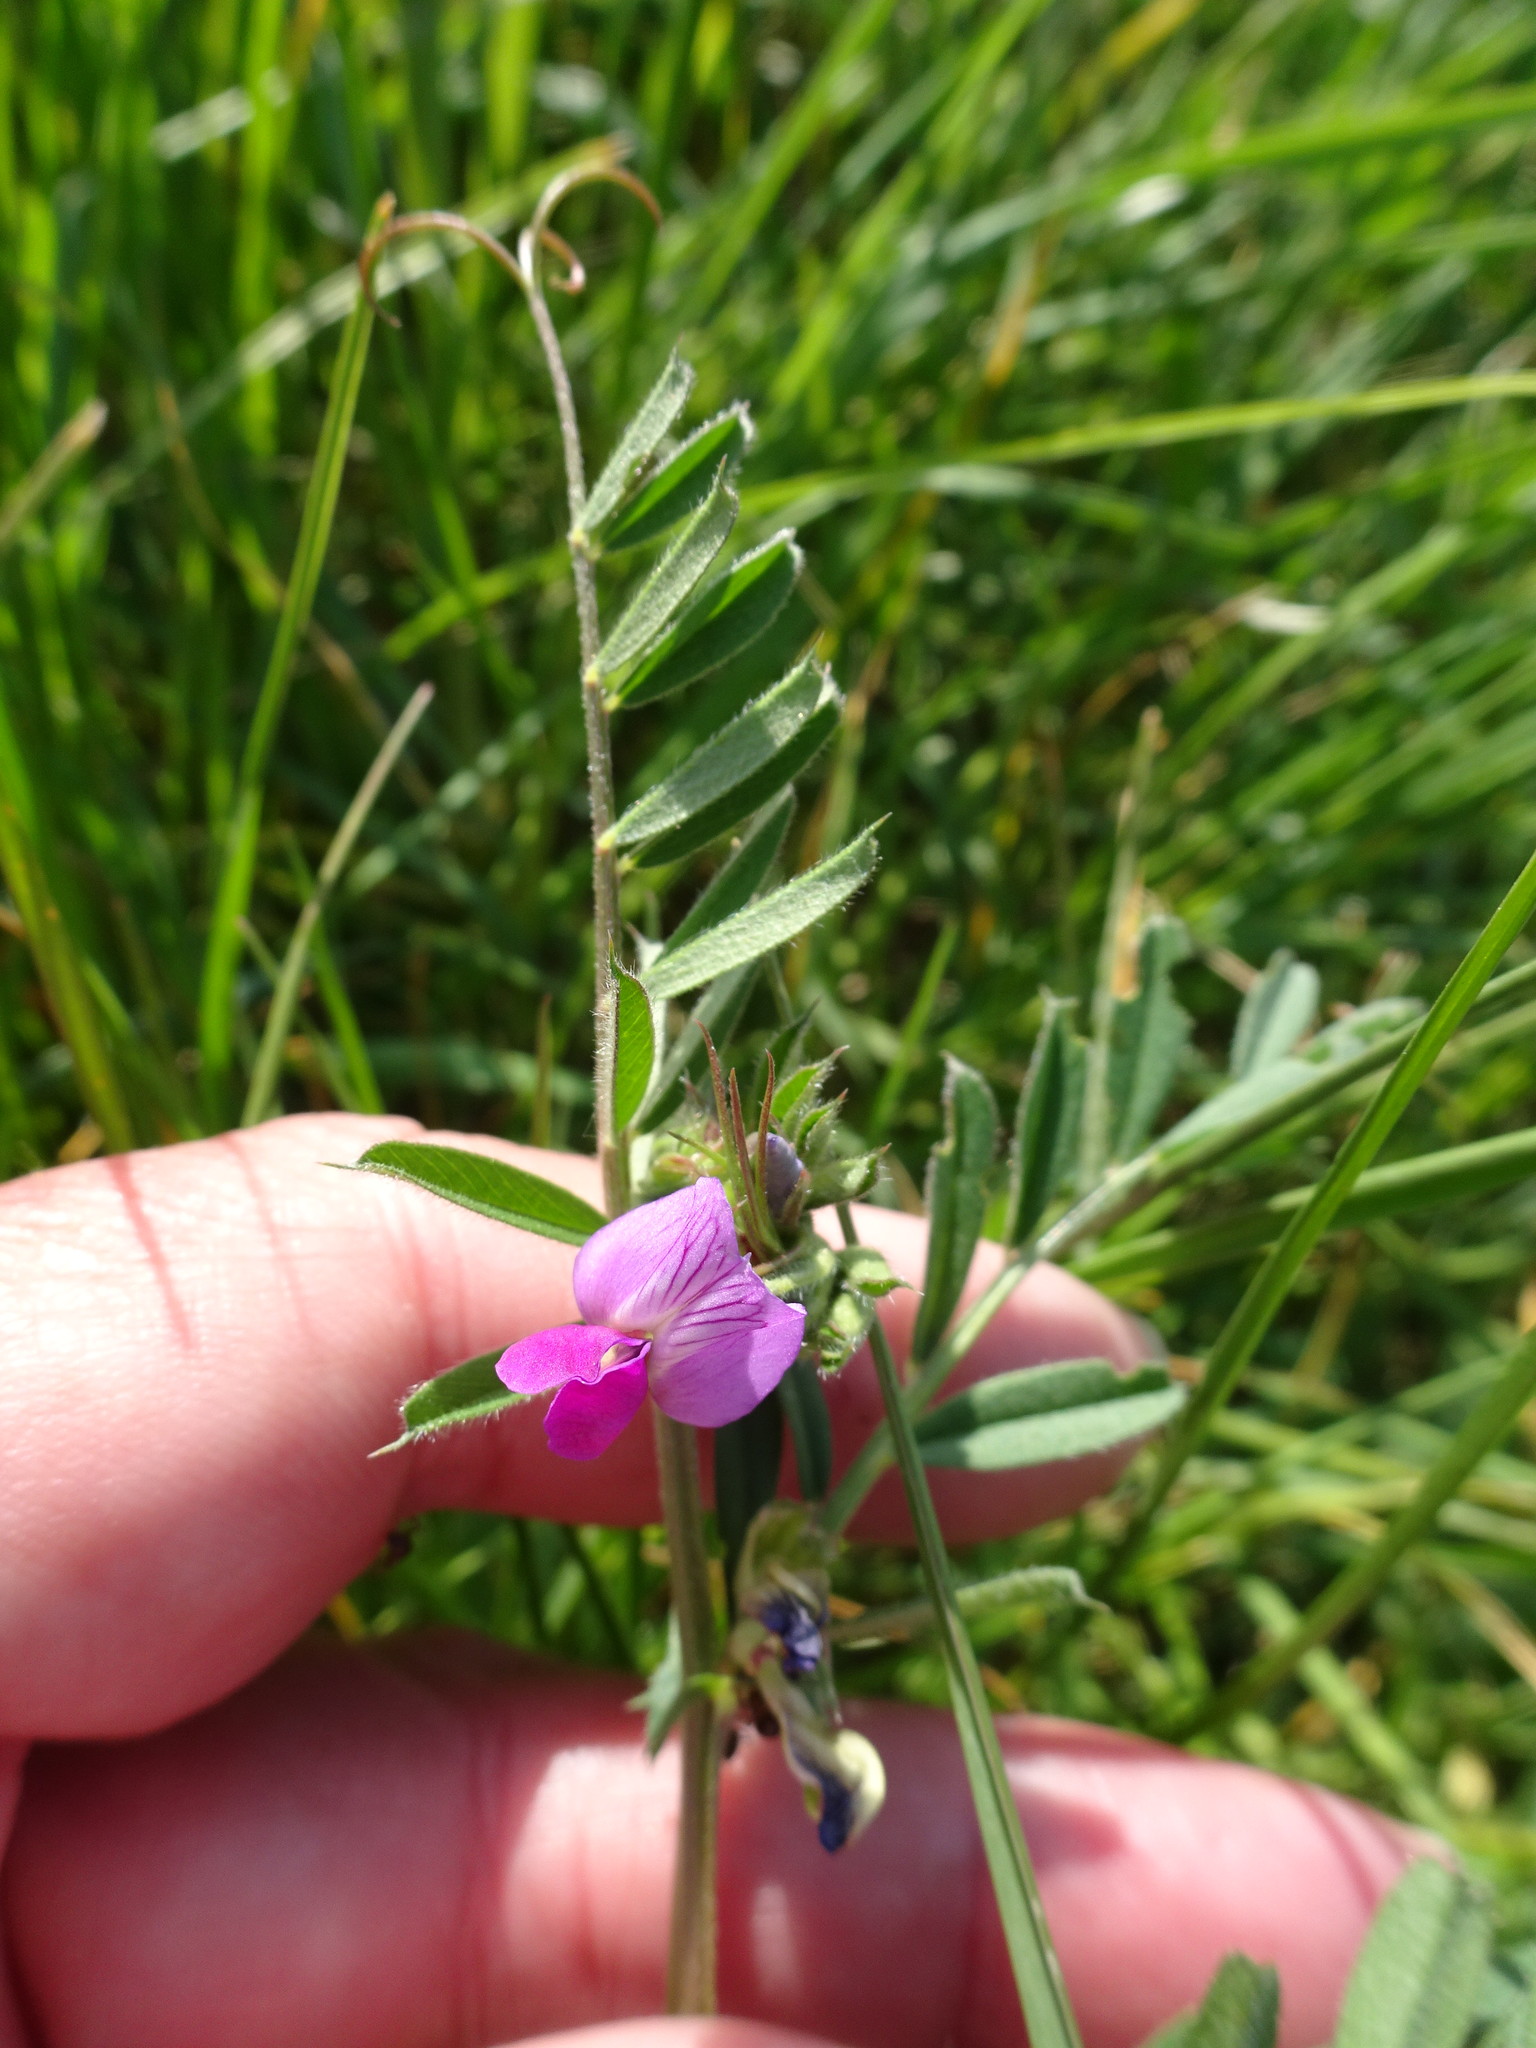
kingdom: Plantae
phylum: Tracheophyta
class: Magnoliopsida
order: Fabales
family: Fabaceae
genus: Vicia
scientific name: Vicia sativa
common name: Garden vetch
